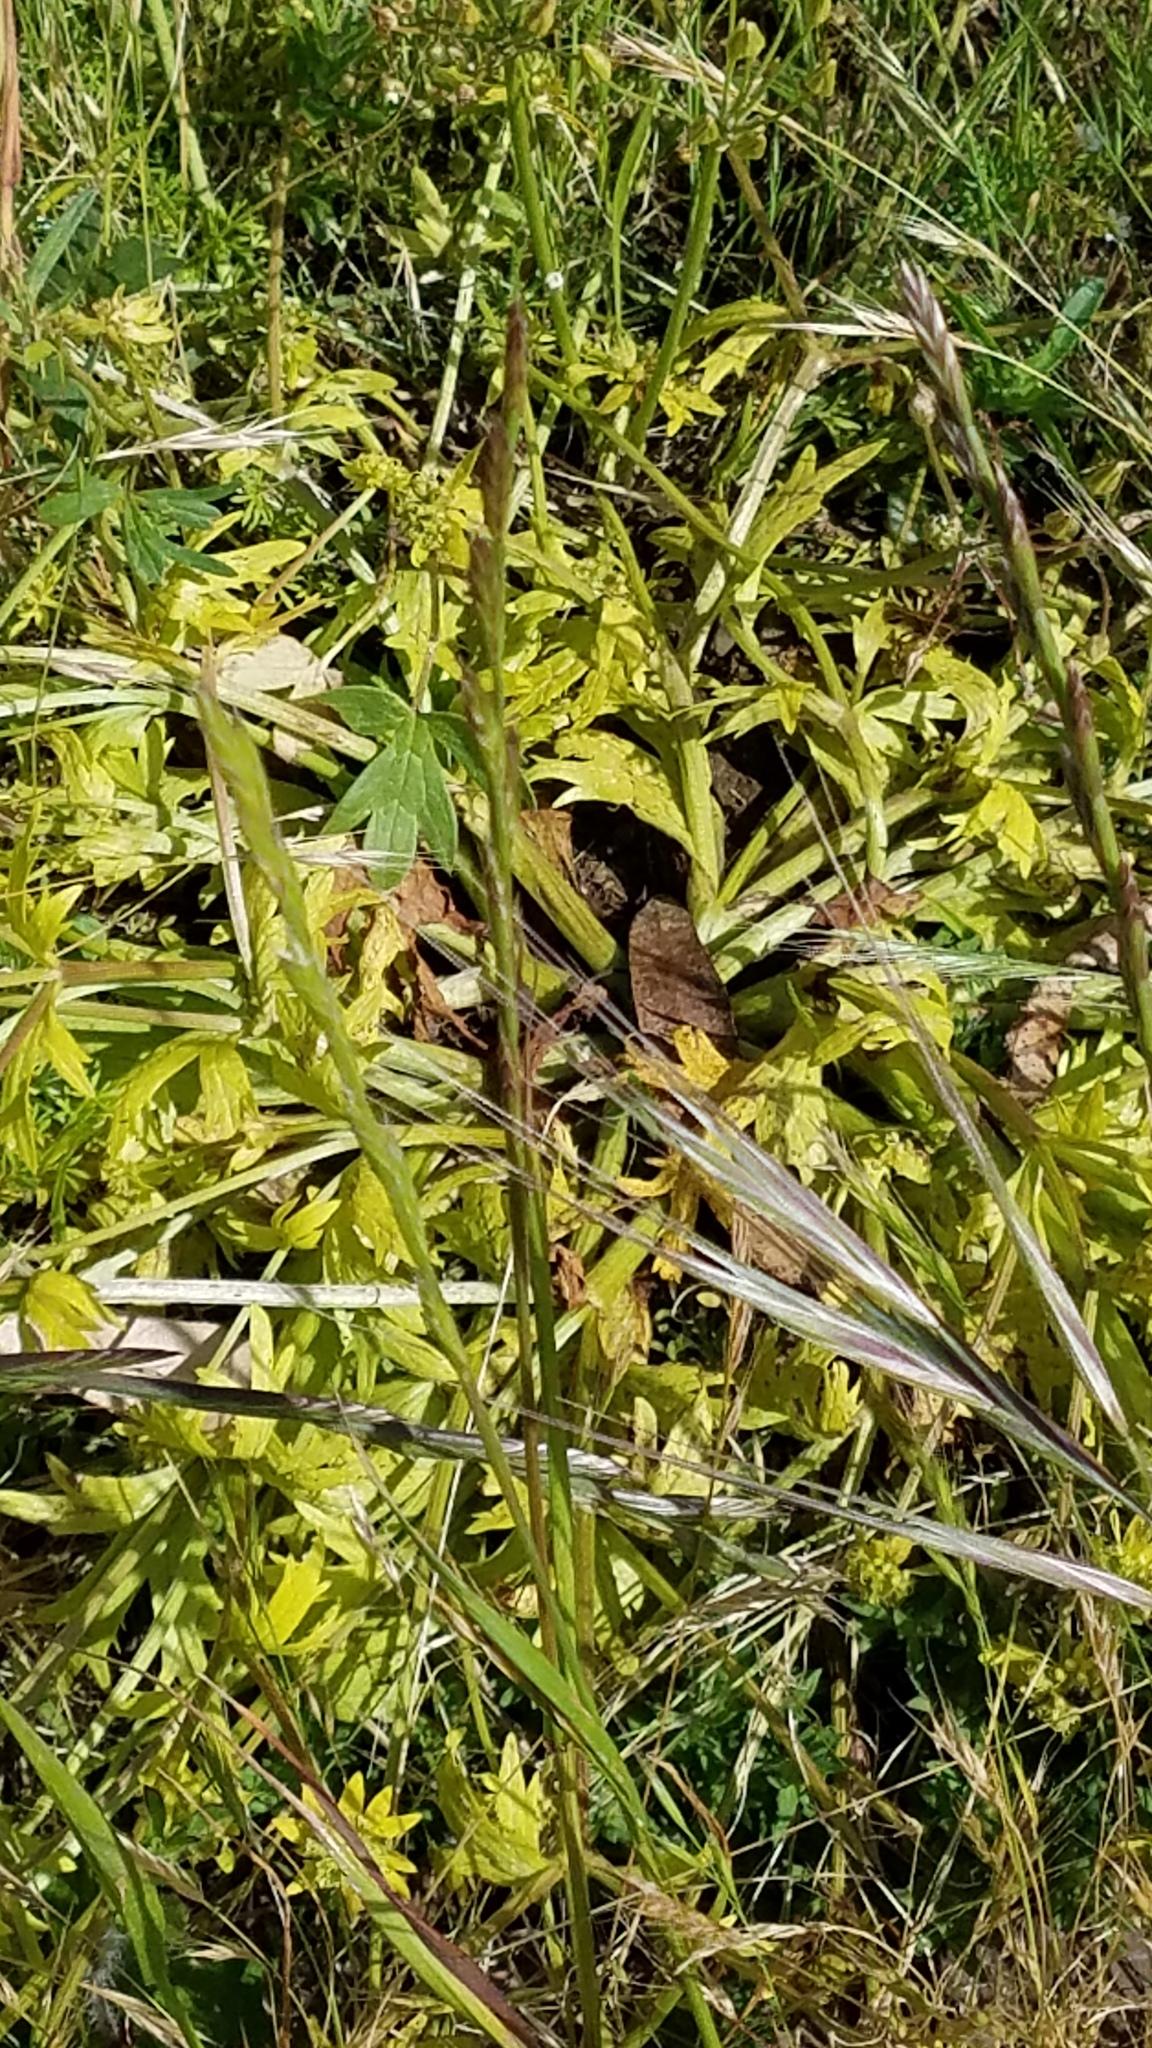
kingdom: Plantae
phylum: Tracheophyta
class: Magnoliopsida
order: Apiales
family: Apiaceae
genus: Sanicula
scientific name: Sanicula arctopoides
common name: Footsteps-of-spring
